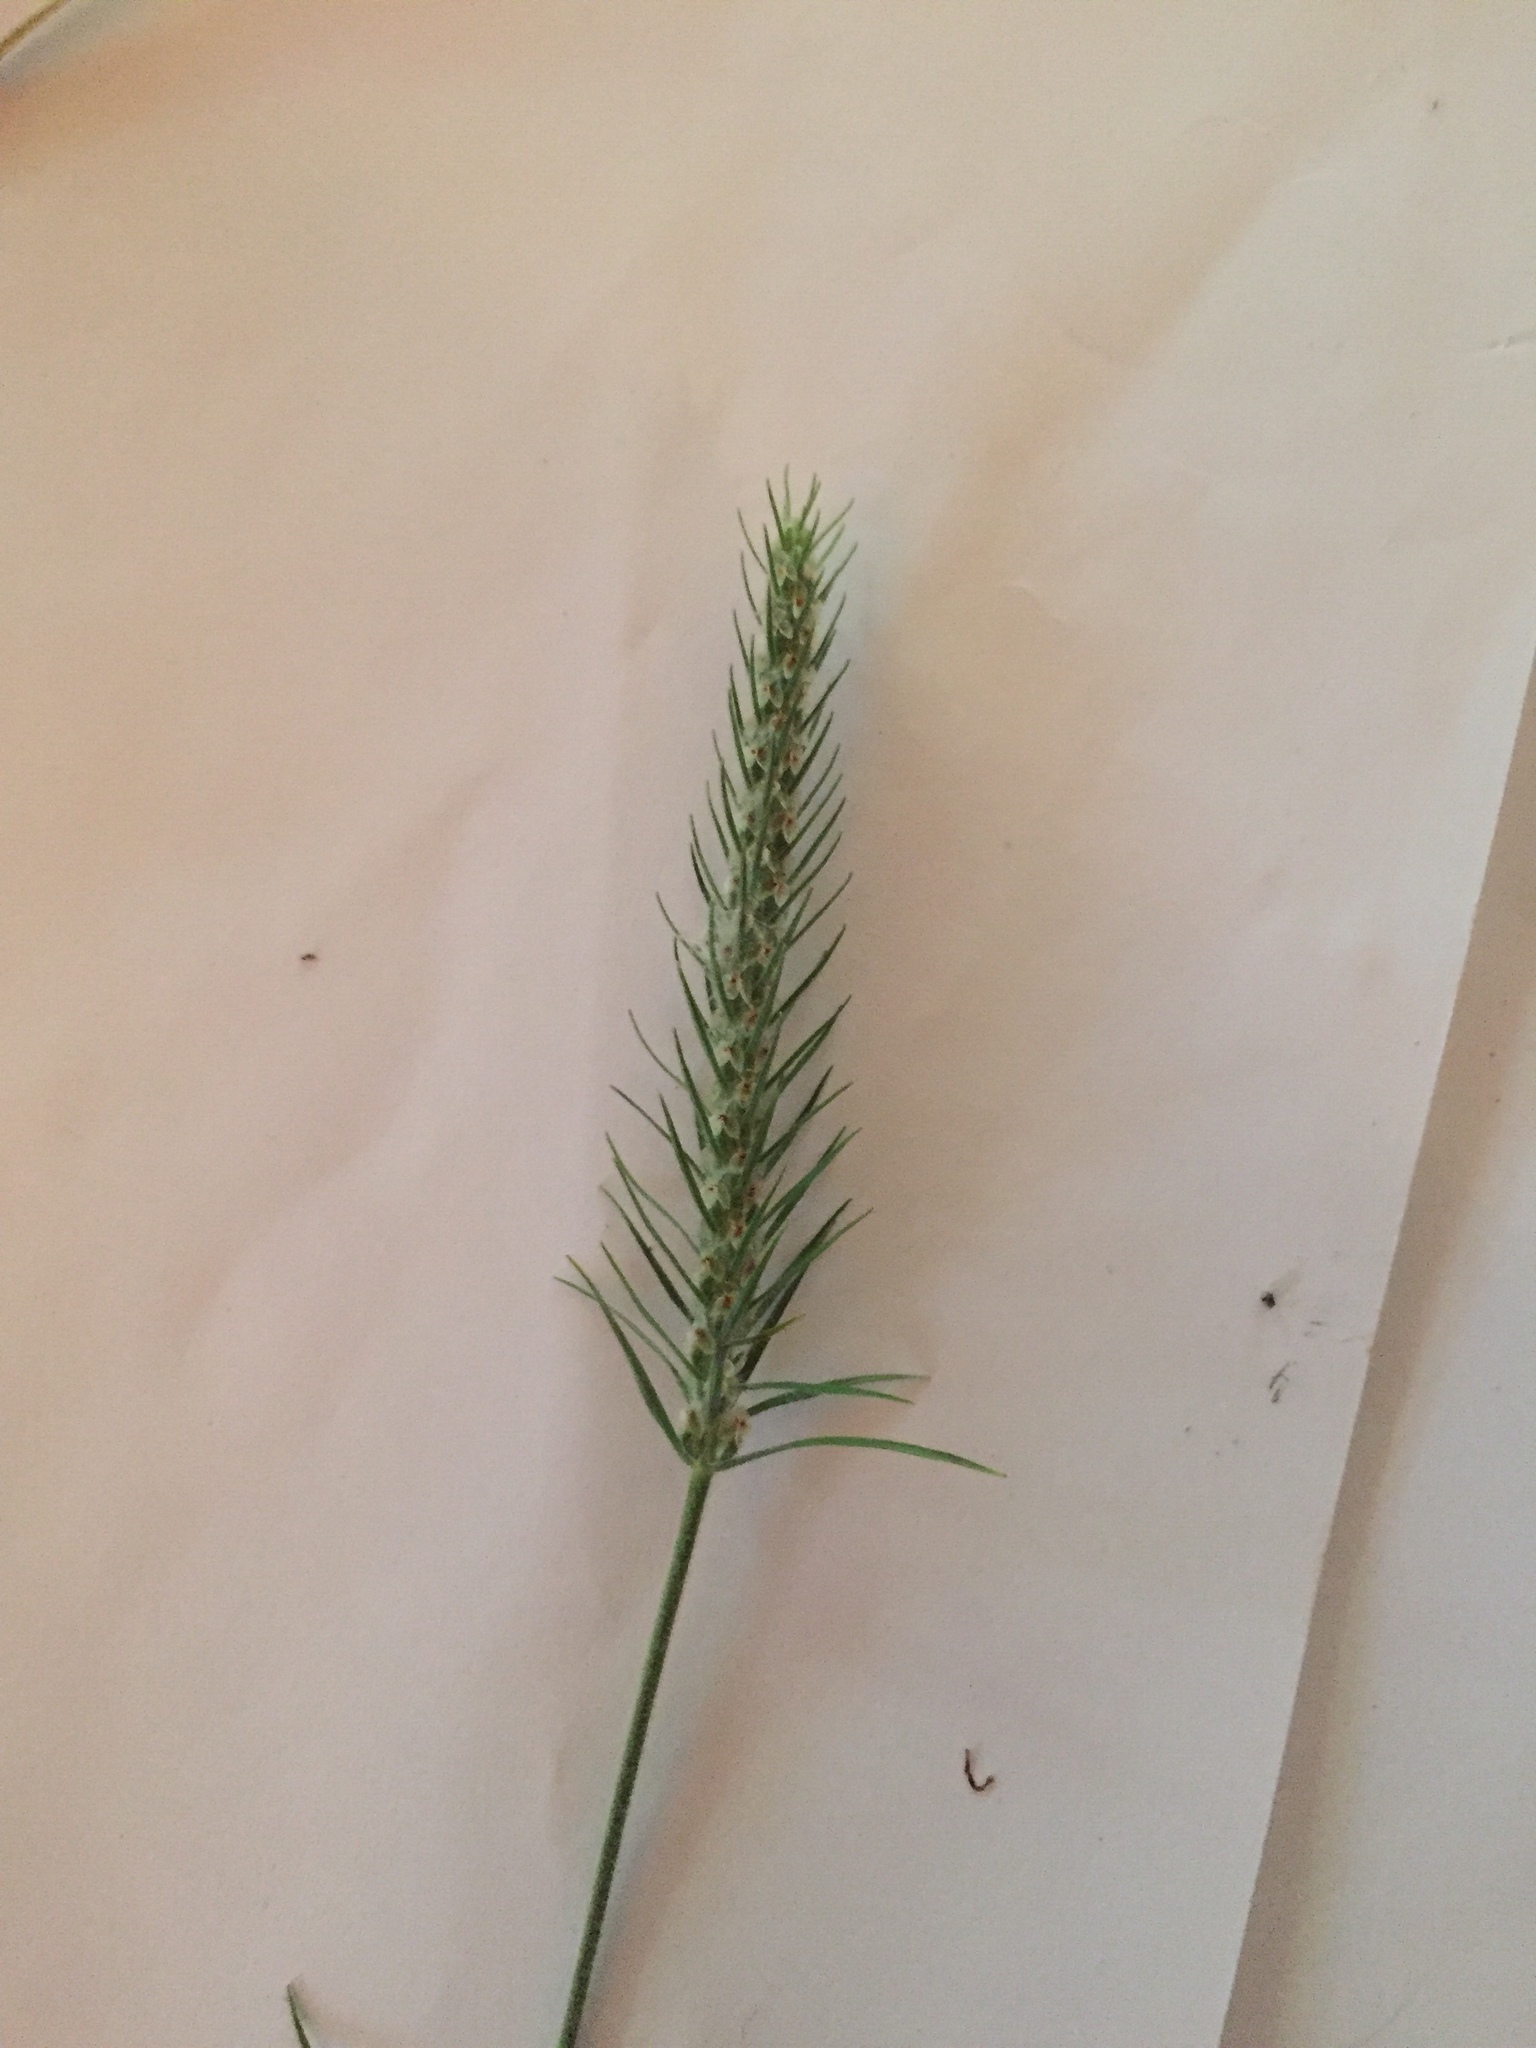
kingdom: Plantae
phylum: Tracheophyta
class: Magnoliopsida
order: Lamiales
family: Plantaginaceae
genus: Plantago
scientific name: Plantago aristata
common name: Bracted plantain
